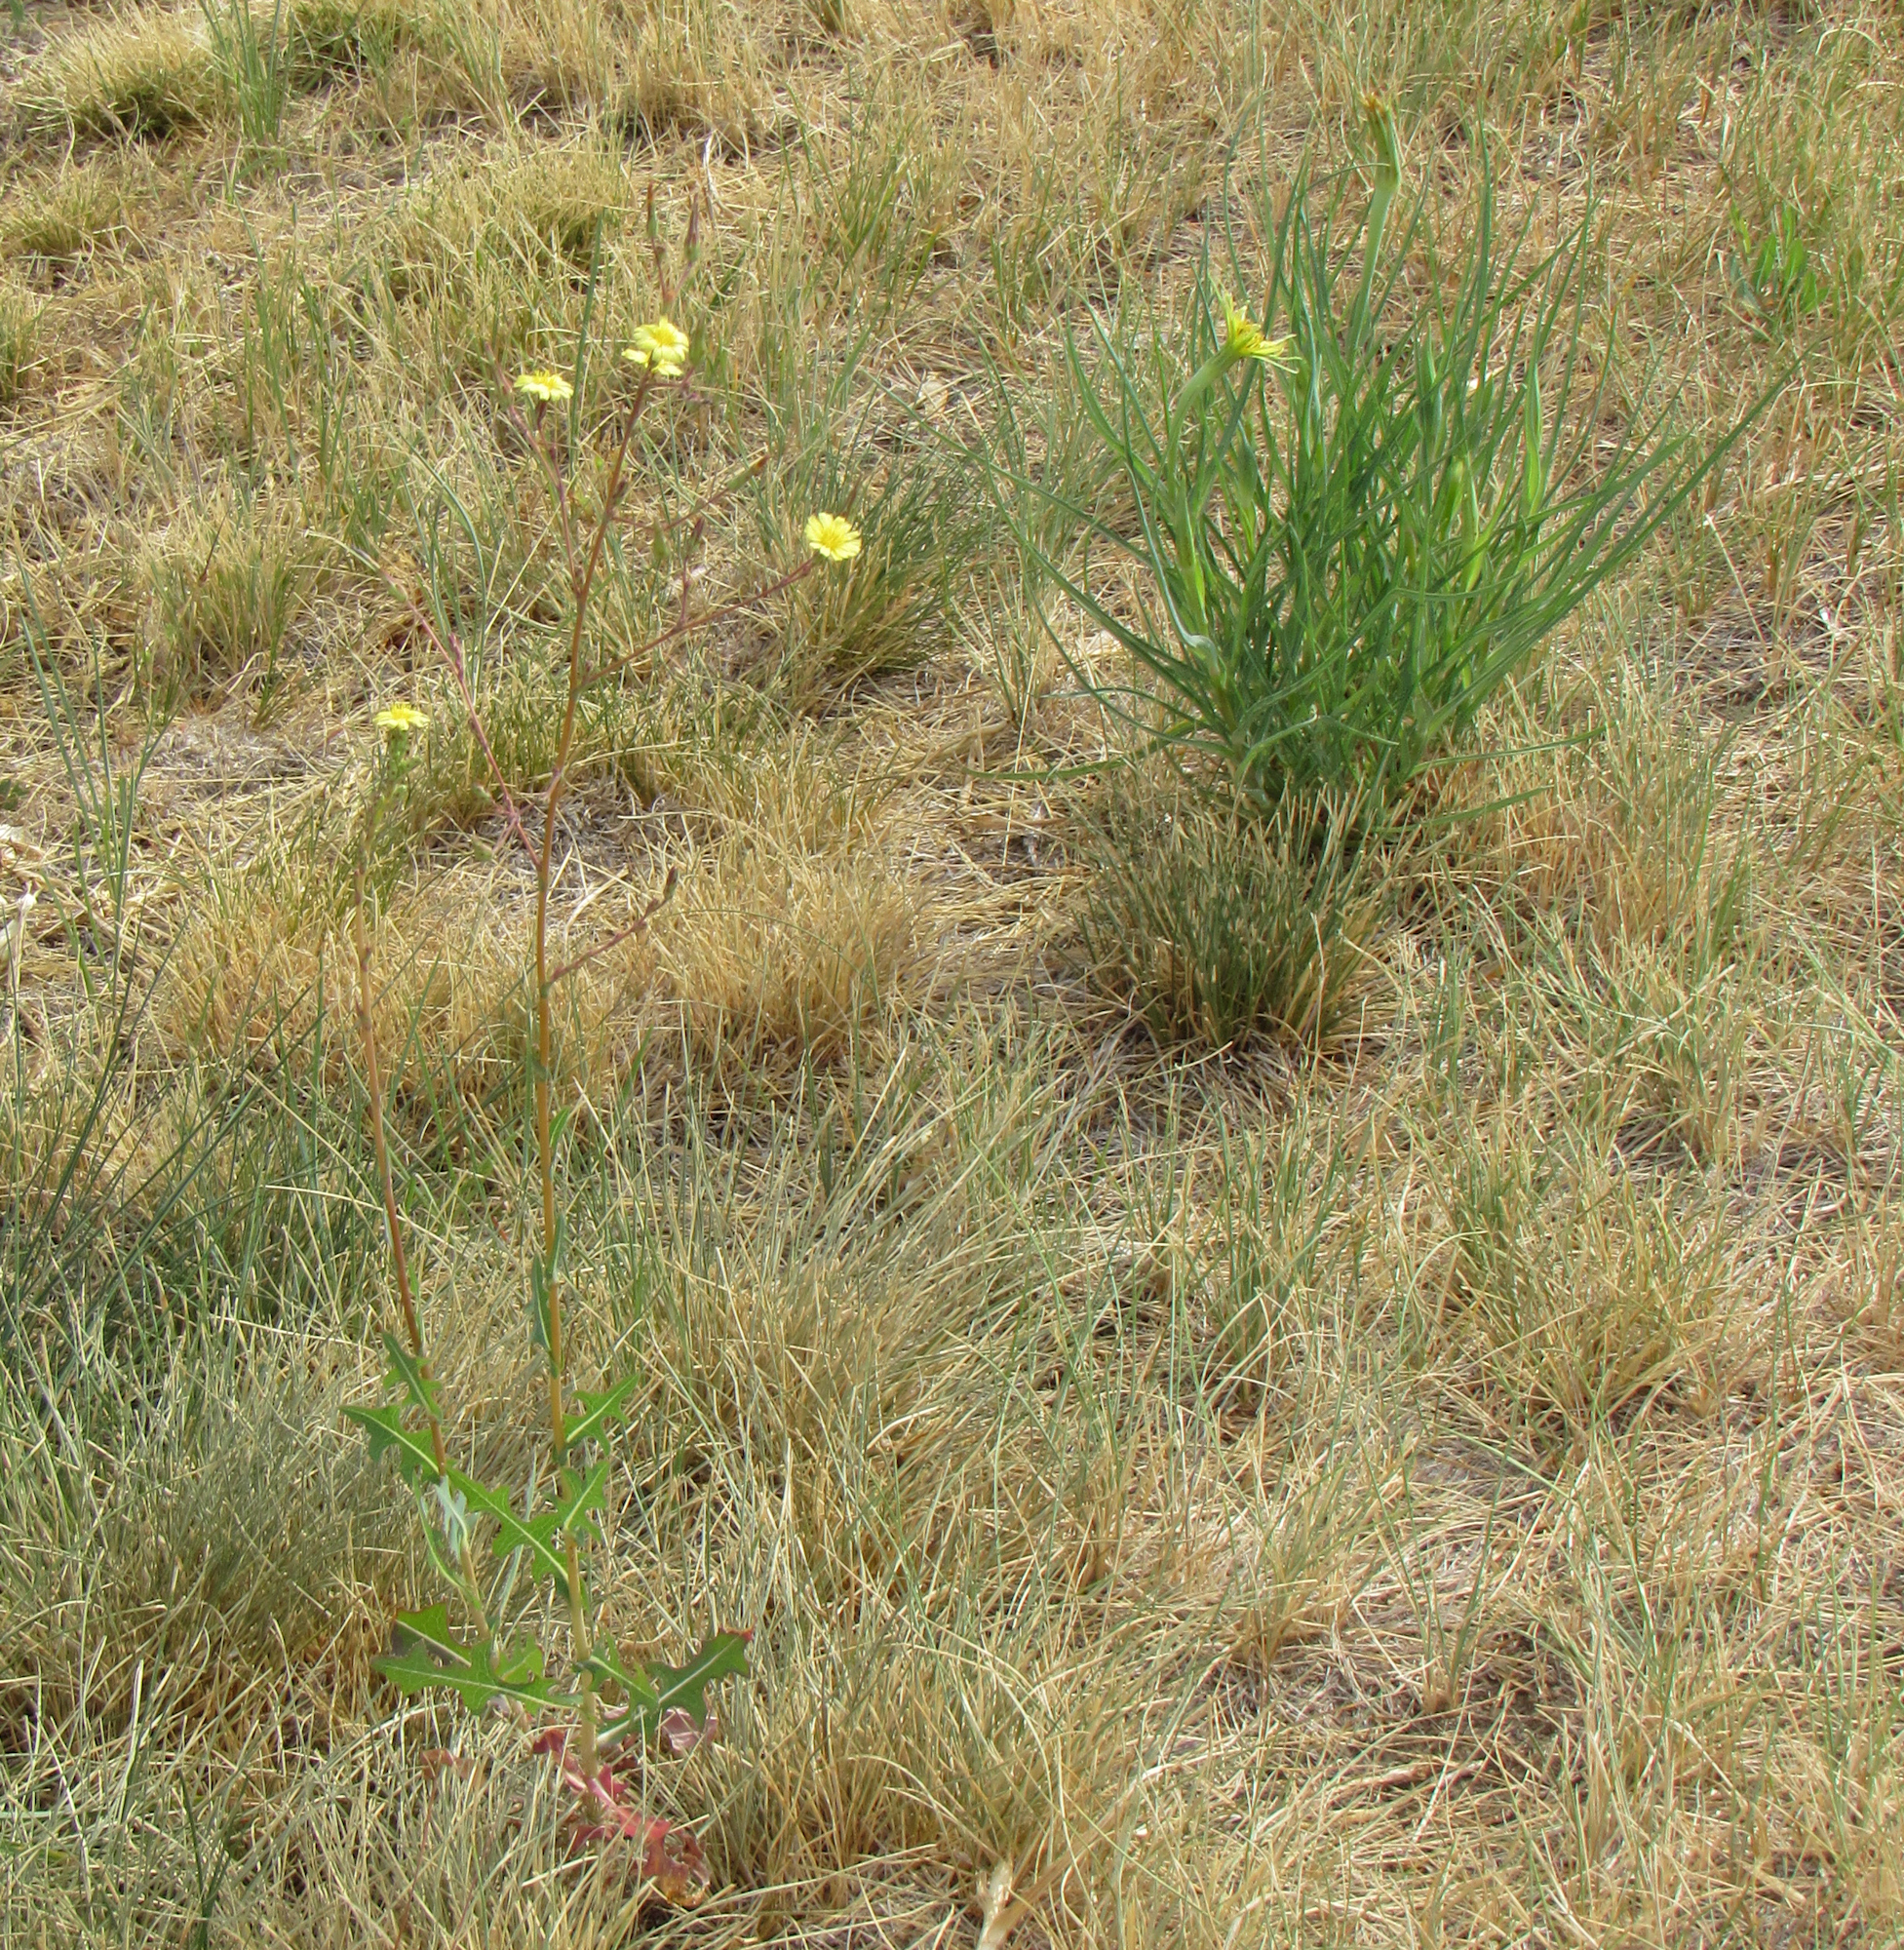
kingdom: Plantae
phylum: Tracheophyta
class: Magnoliopsida
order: Asterales
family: Asteraceae
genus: Tragopogon
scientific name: Tragopogon dubius
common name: Yellow salsify
